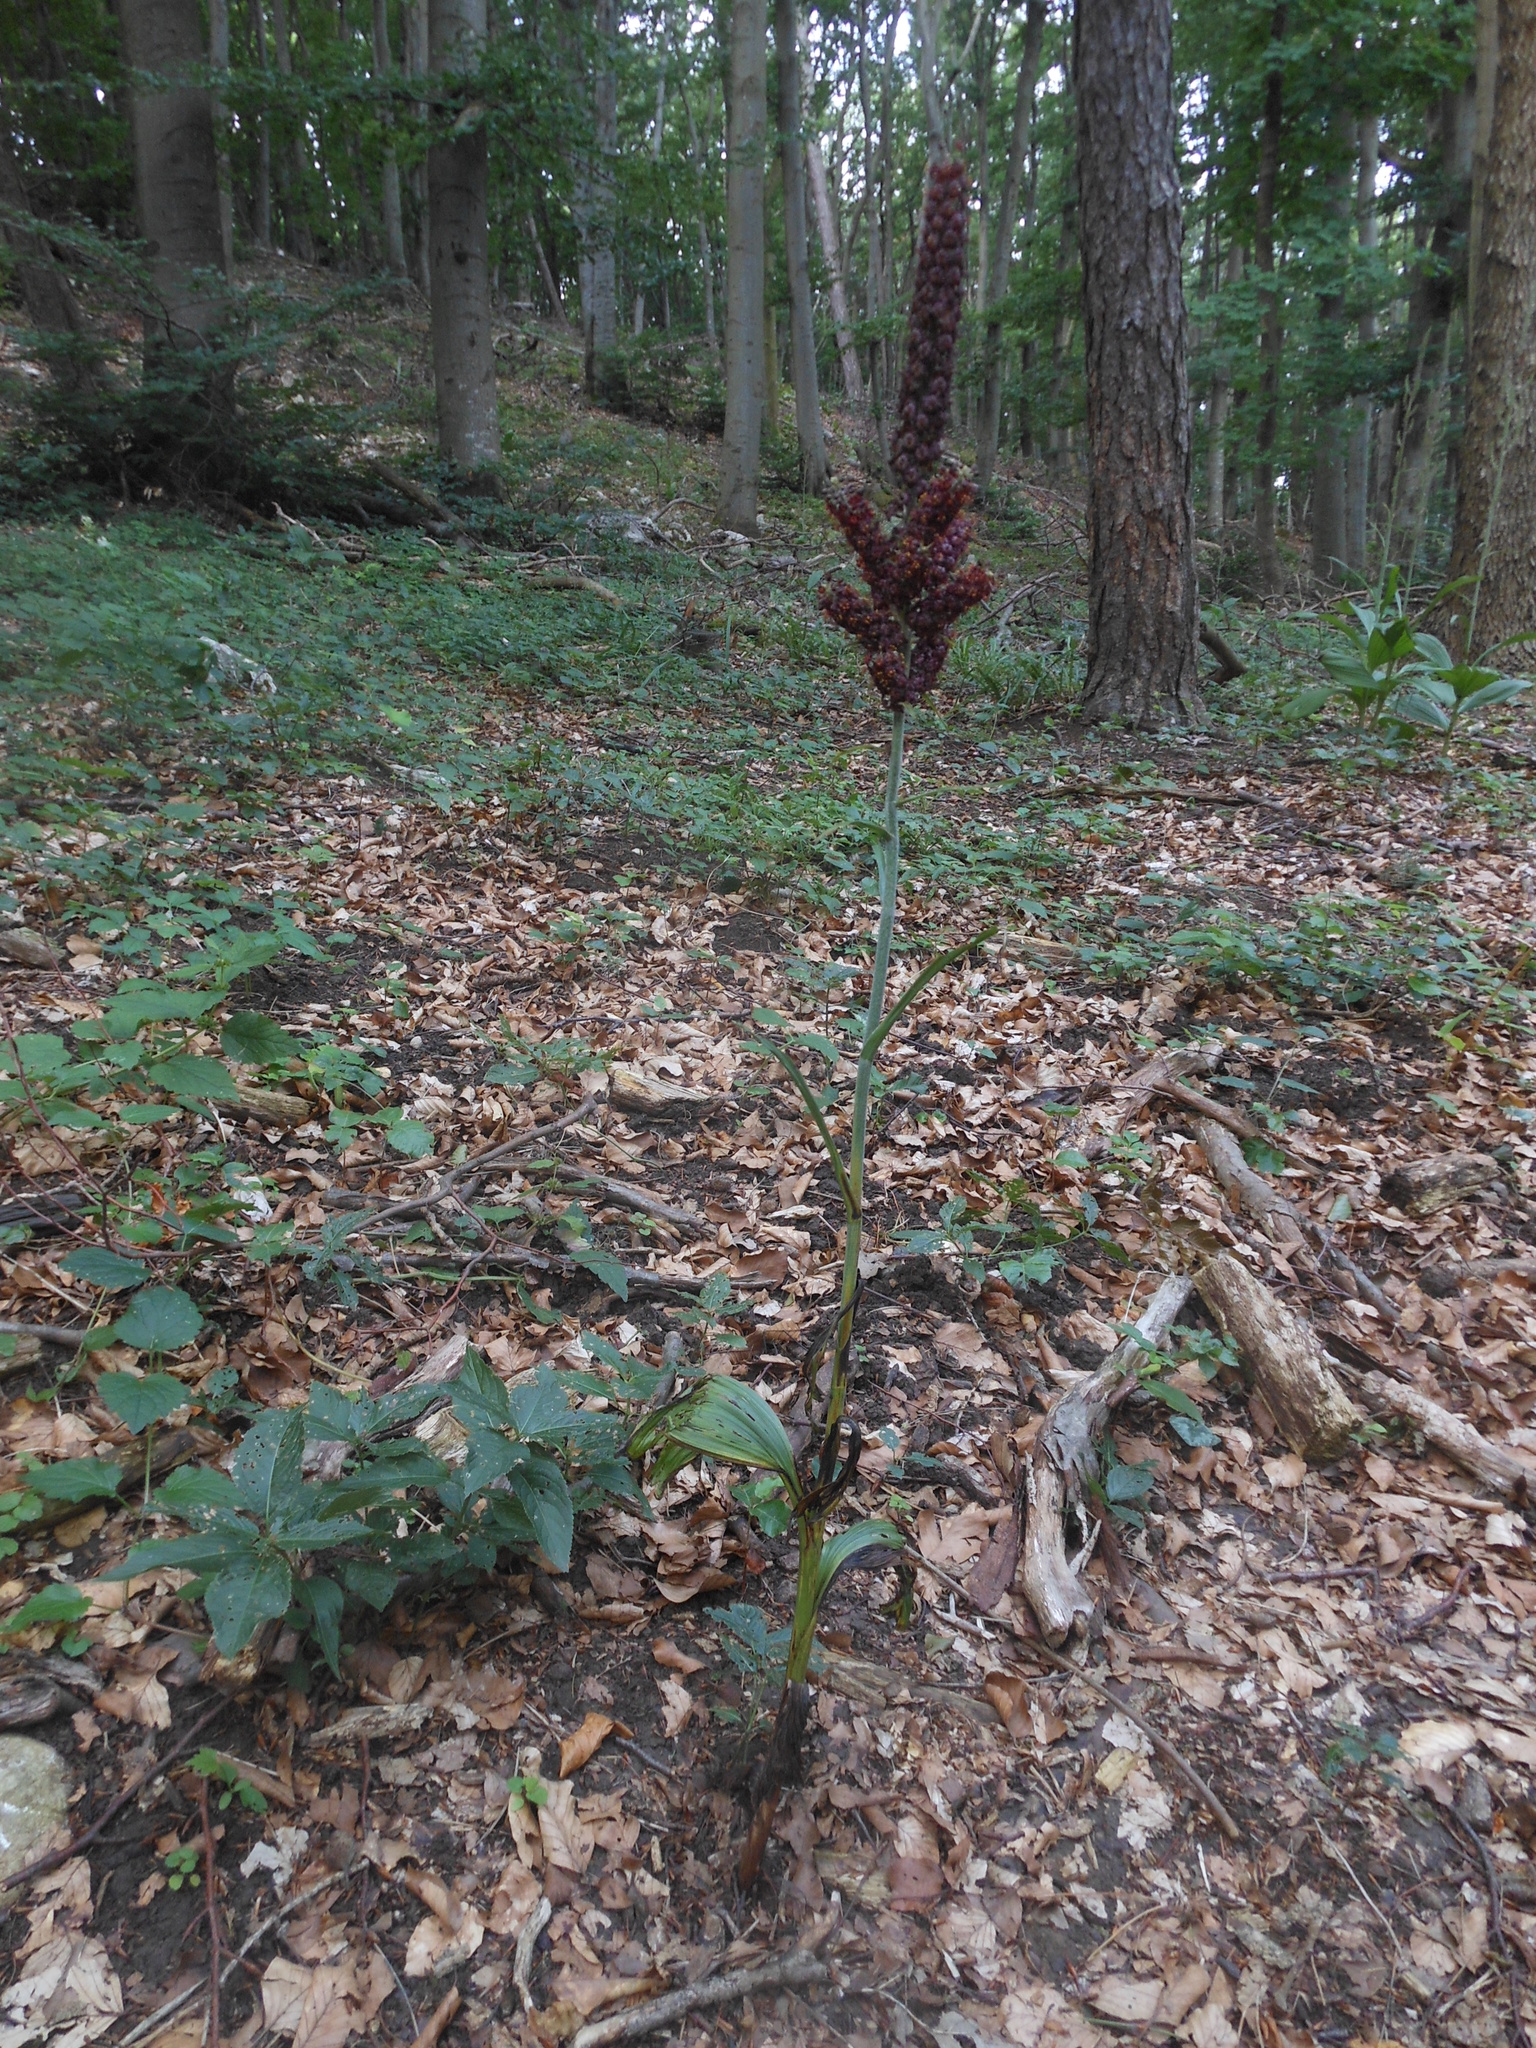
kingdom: Plantae
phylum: Tracheophyta
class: Liliopsida
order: Liliales
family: Melanthiaceae
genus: Veratrum
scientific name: Veratrum nigrum
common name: Black veratrum
